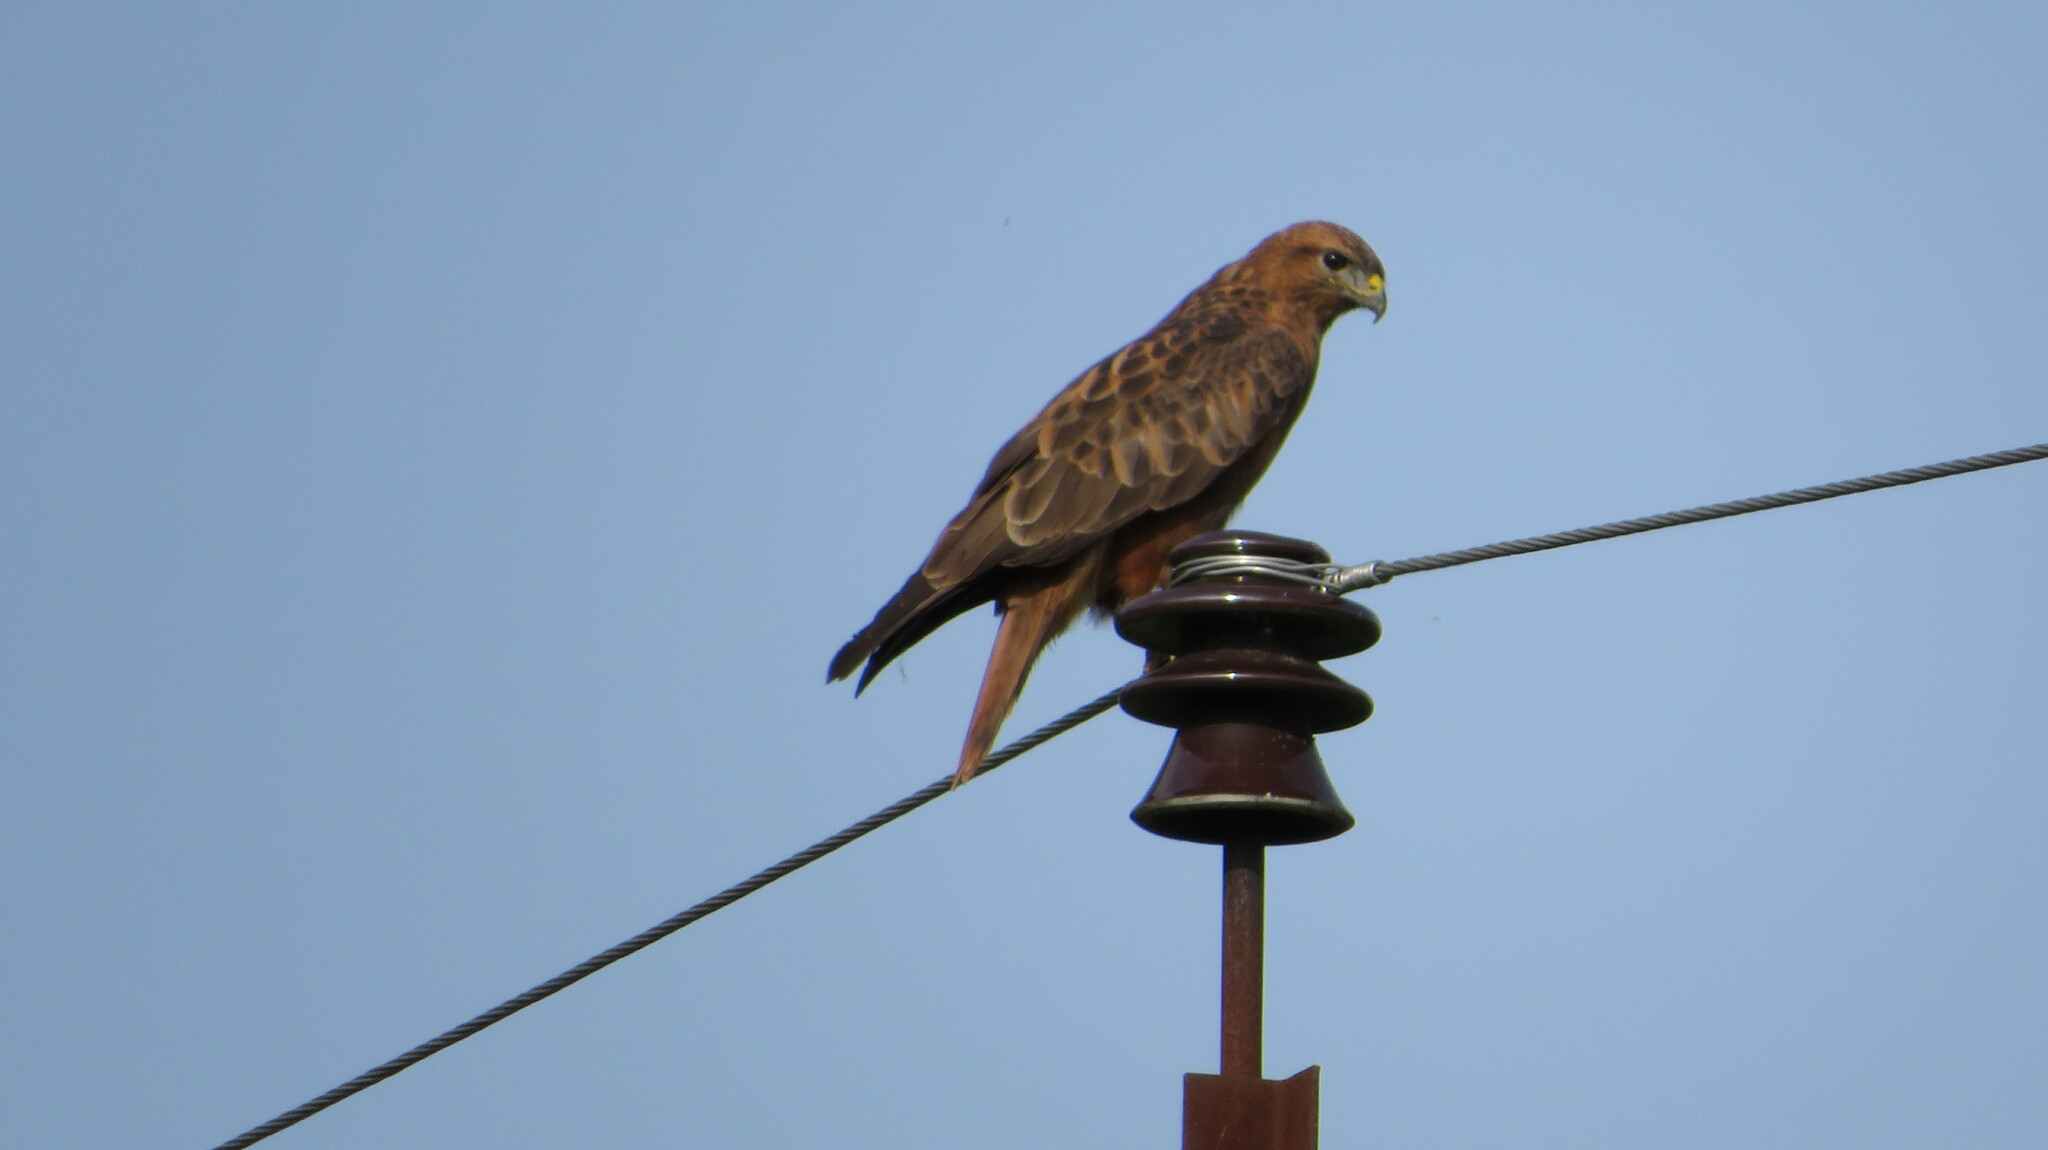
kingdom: Animalia
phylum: Chordata
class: Aves
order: Accipitriformes
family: Accipitridae
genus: Buteo
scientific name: Buteo buteo
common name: Common buzzard
